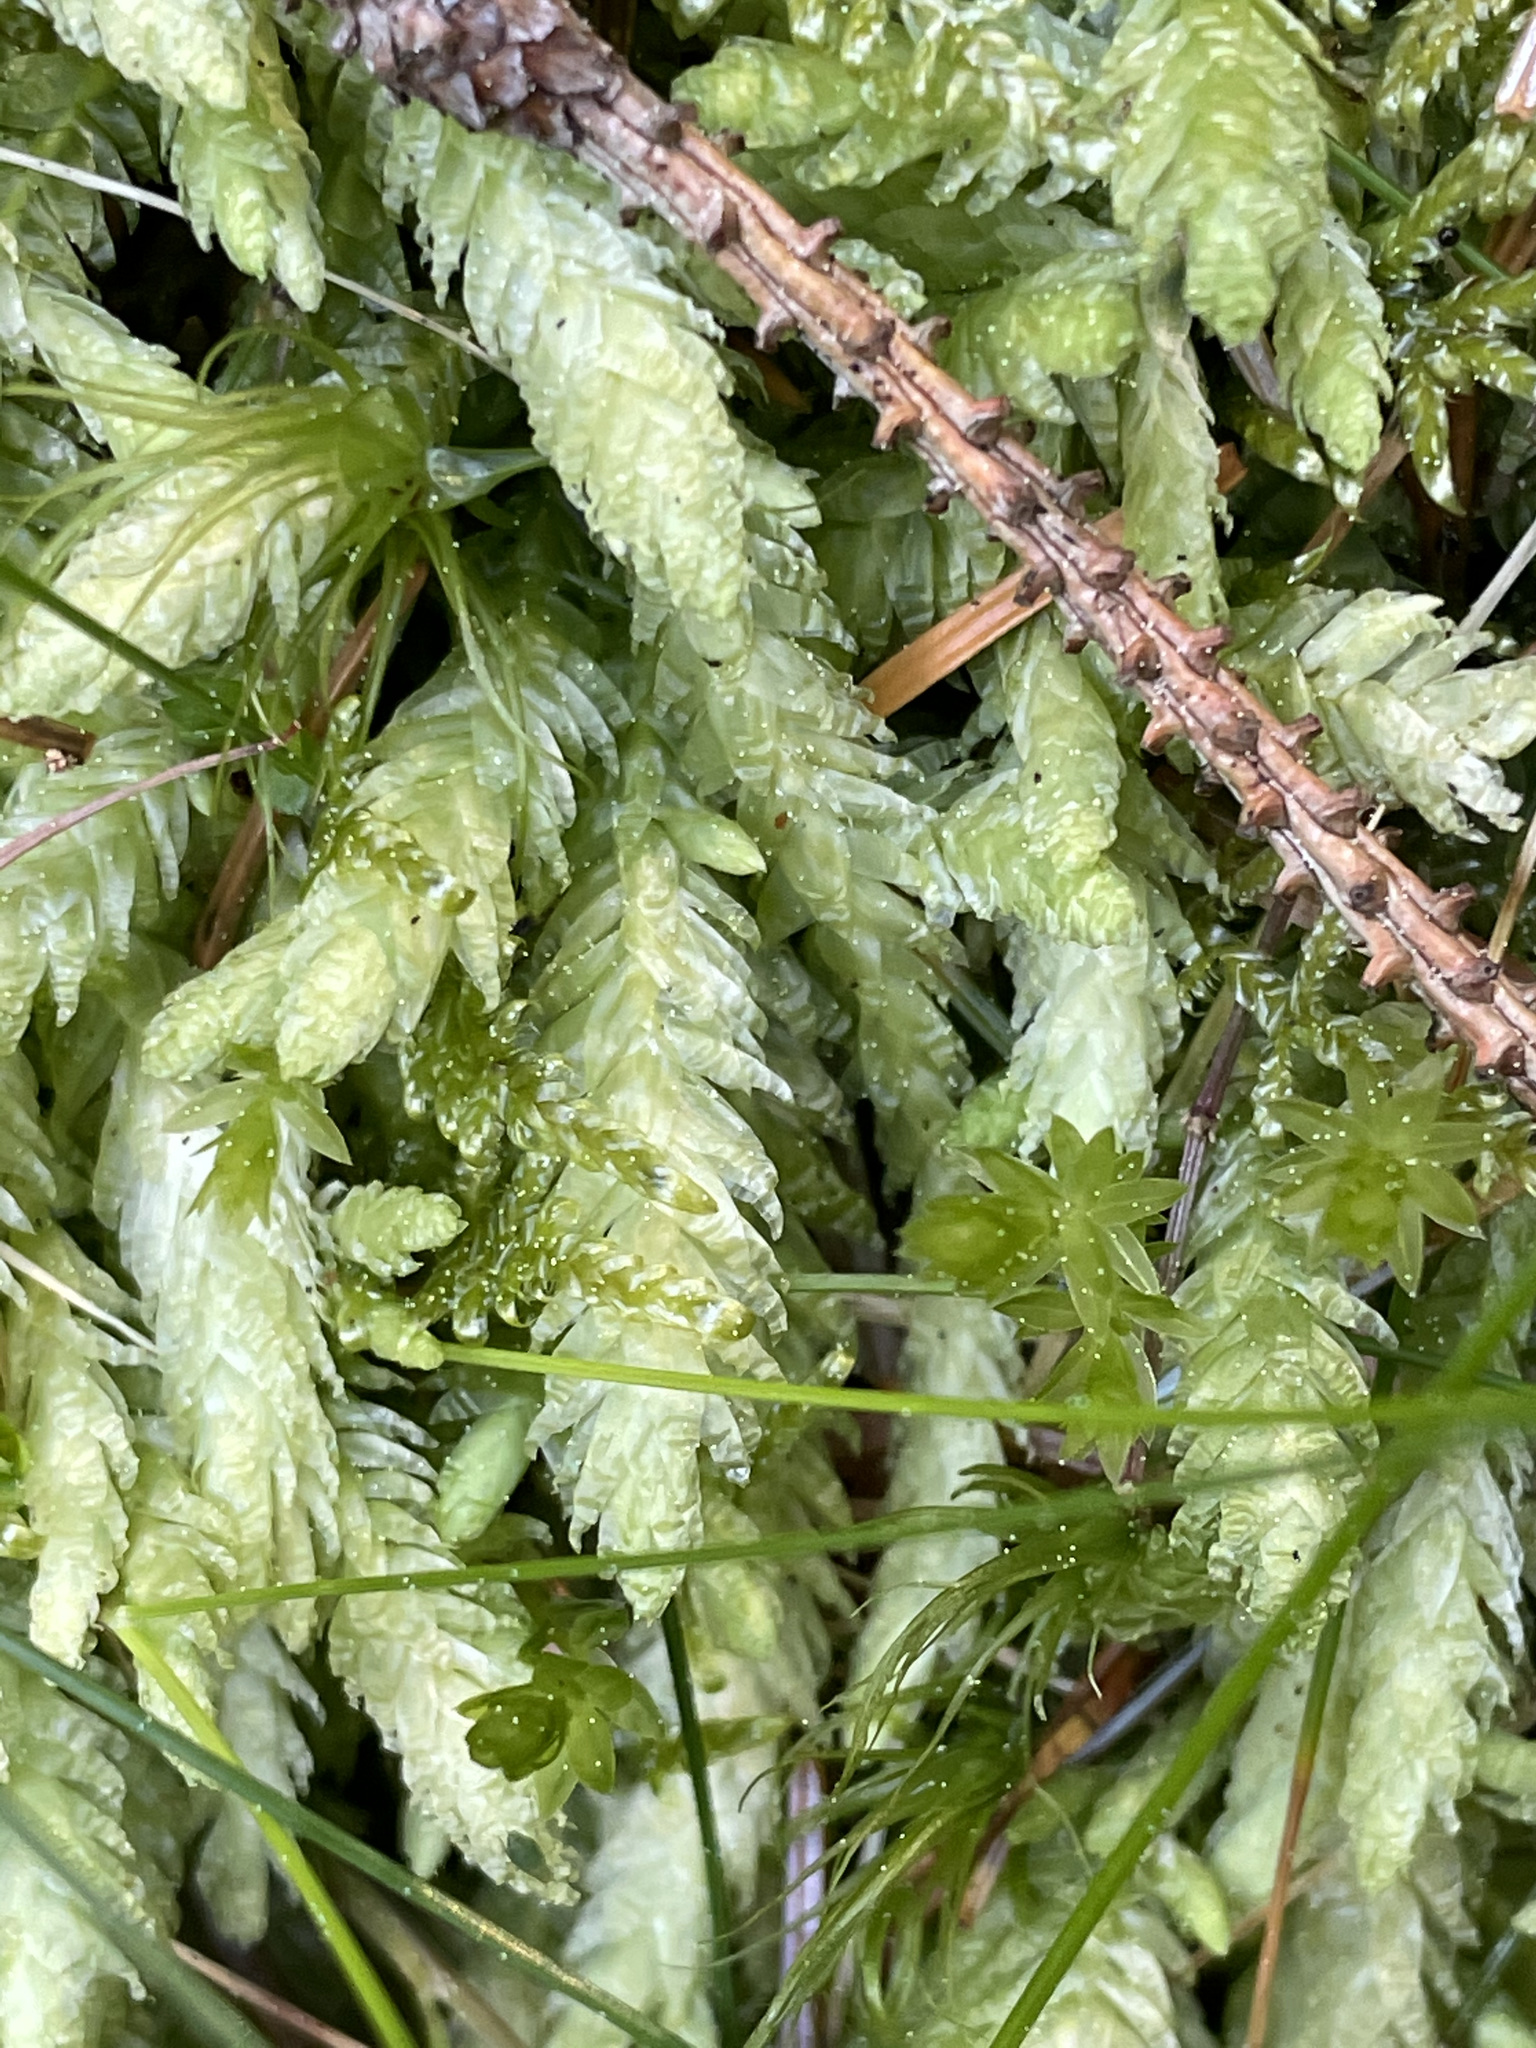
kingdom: Plantae
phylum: Bryophyta
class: Bryopsida
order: Hypnales
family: Plagiotheciaceae
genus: Plagiothecium
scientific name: Plagiothecium undulatum
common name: Waved silk-moss
